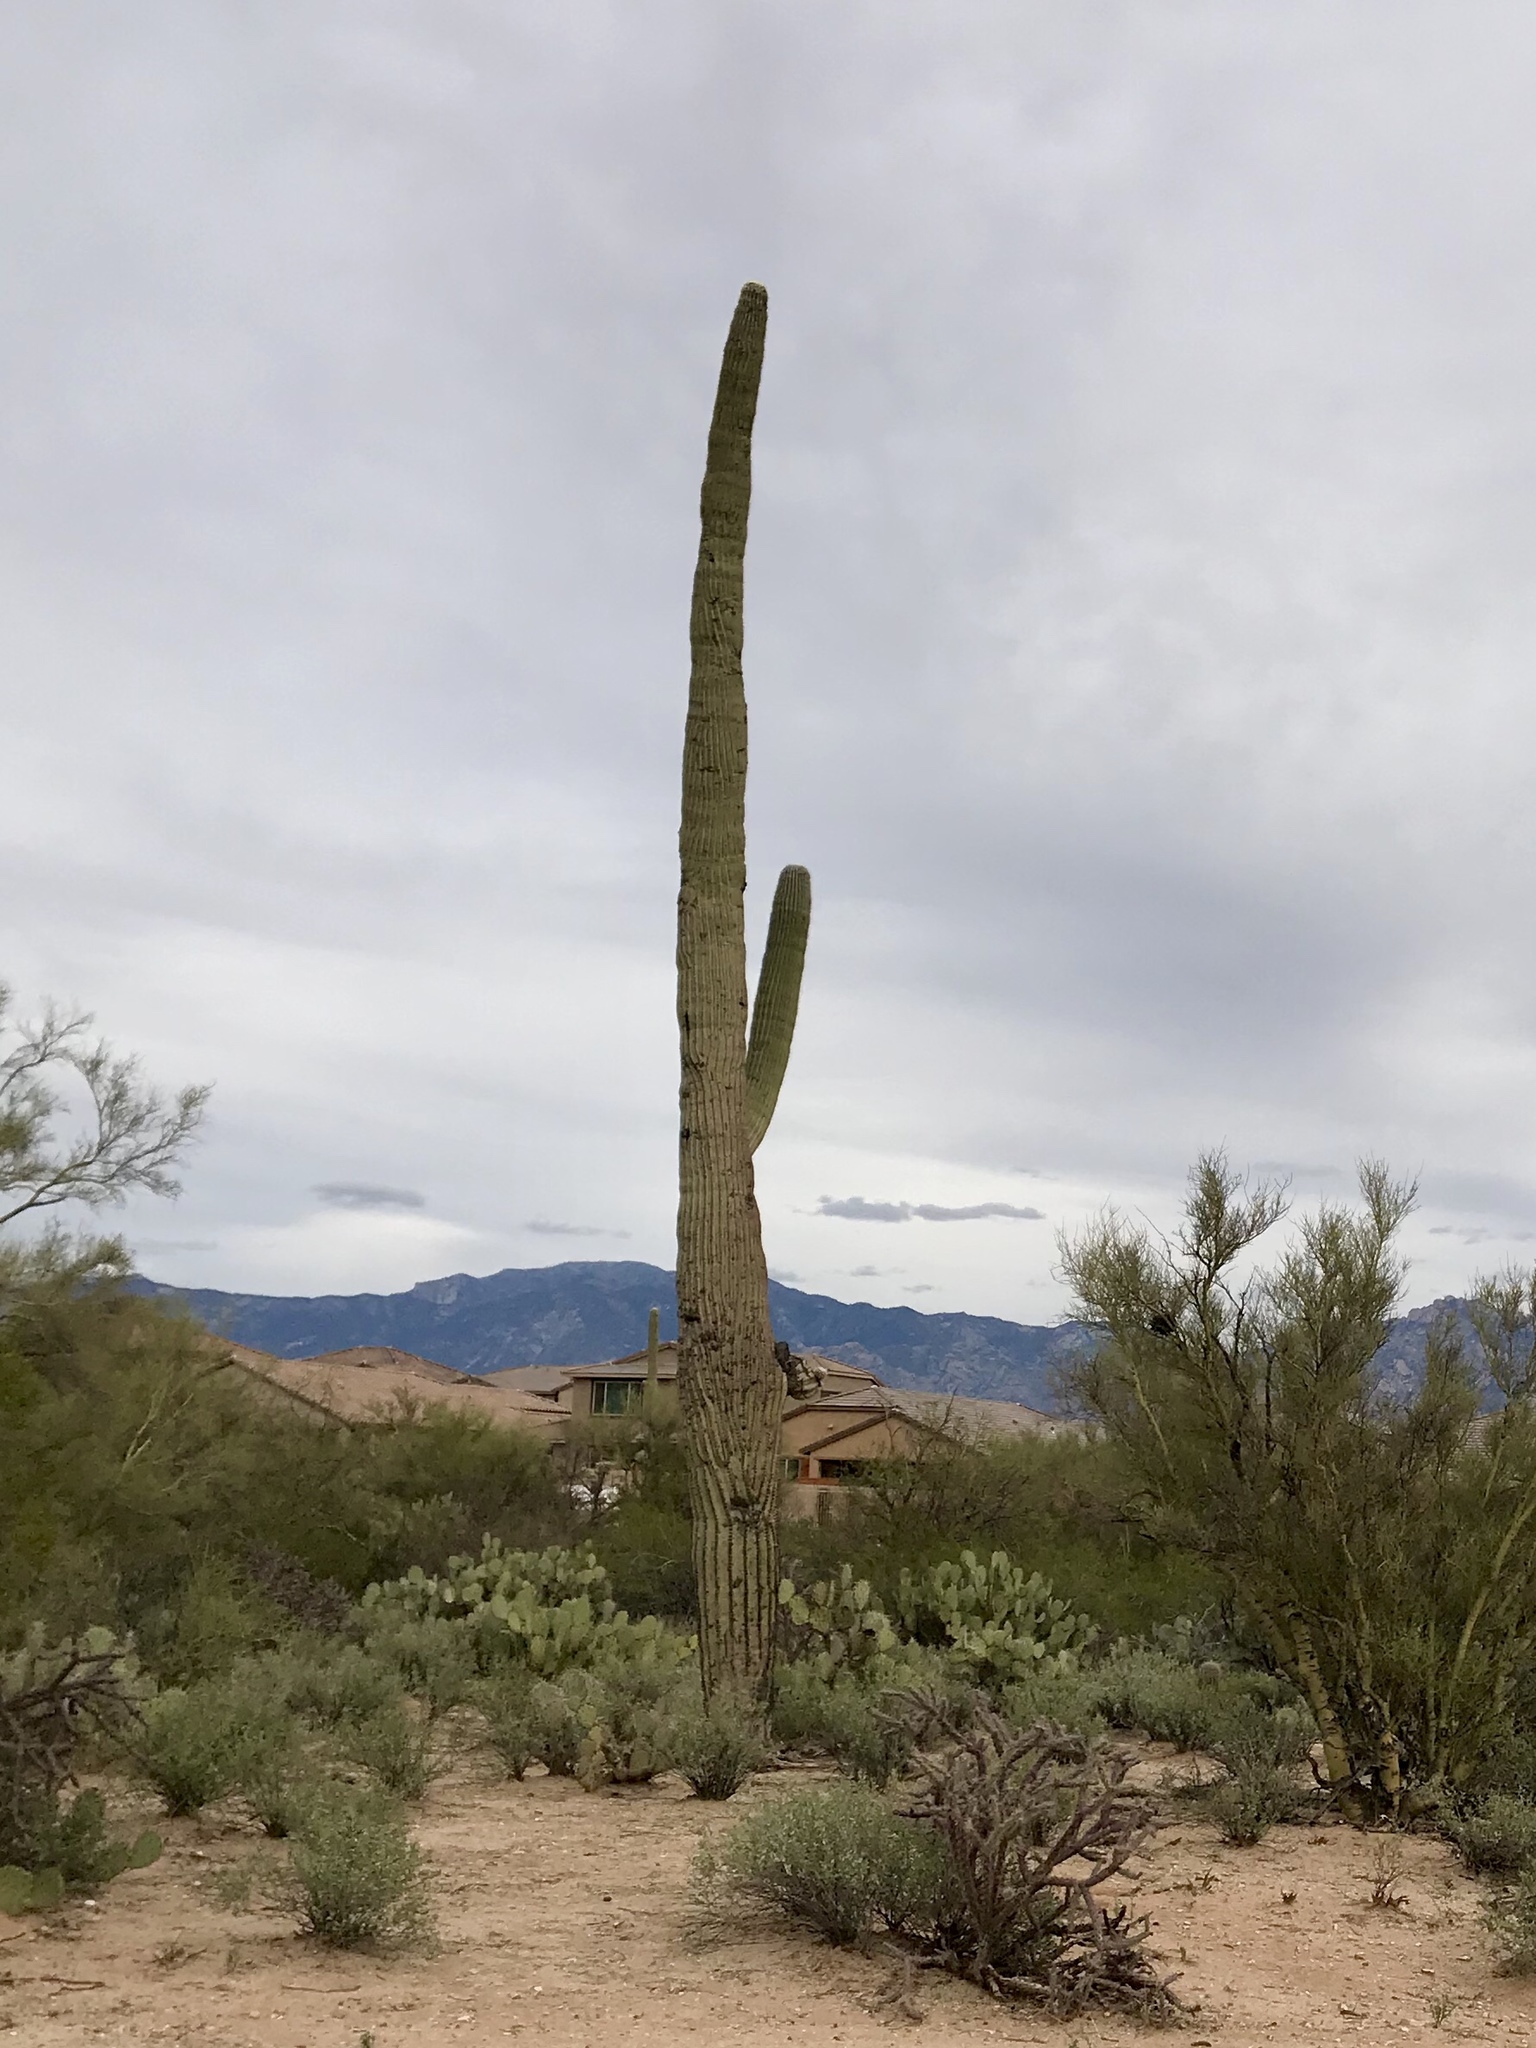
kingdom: Plantae
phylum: Tracheophyta
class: Magnoliopsida
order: Caryophyllales
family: Cactaceae
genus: Carnegiea
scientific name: Carnegiea gigantea
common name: Saguaro
